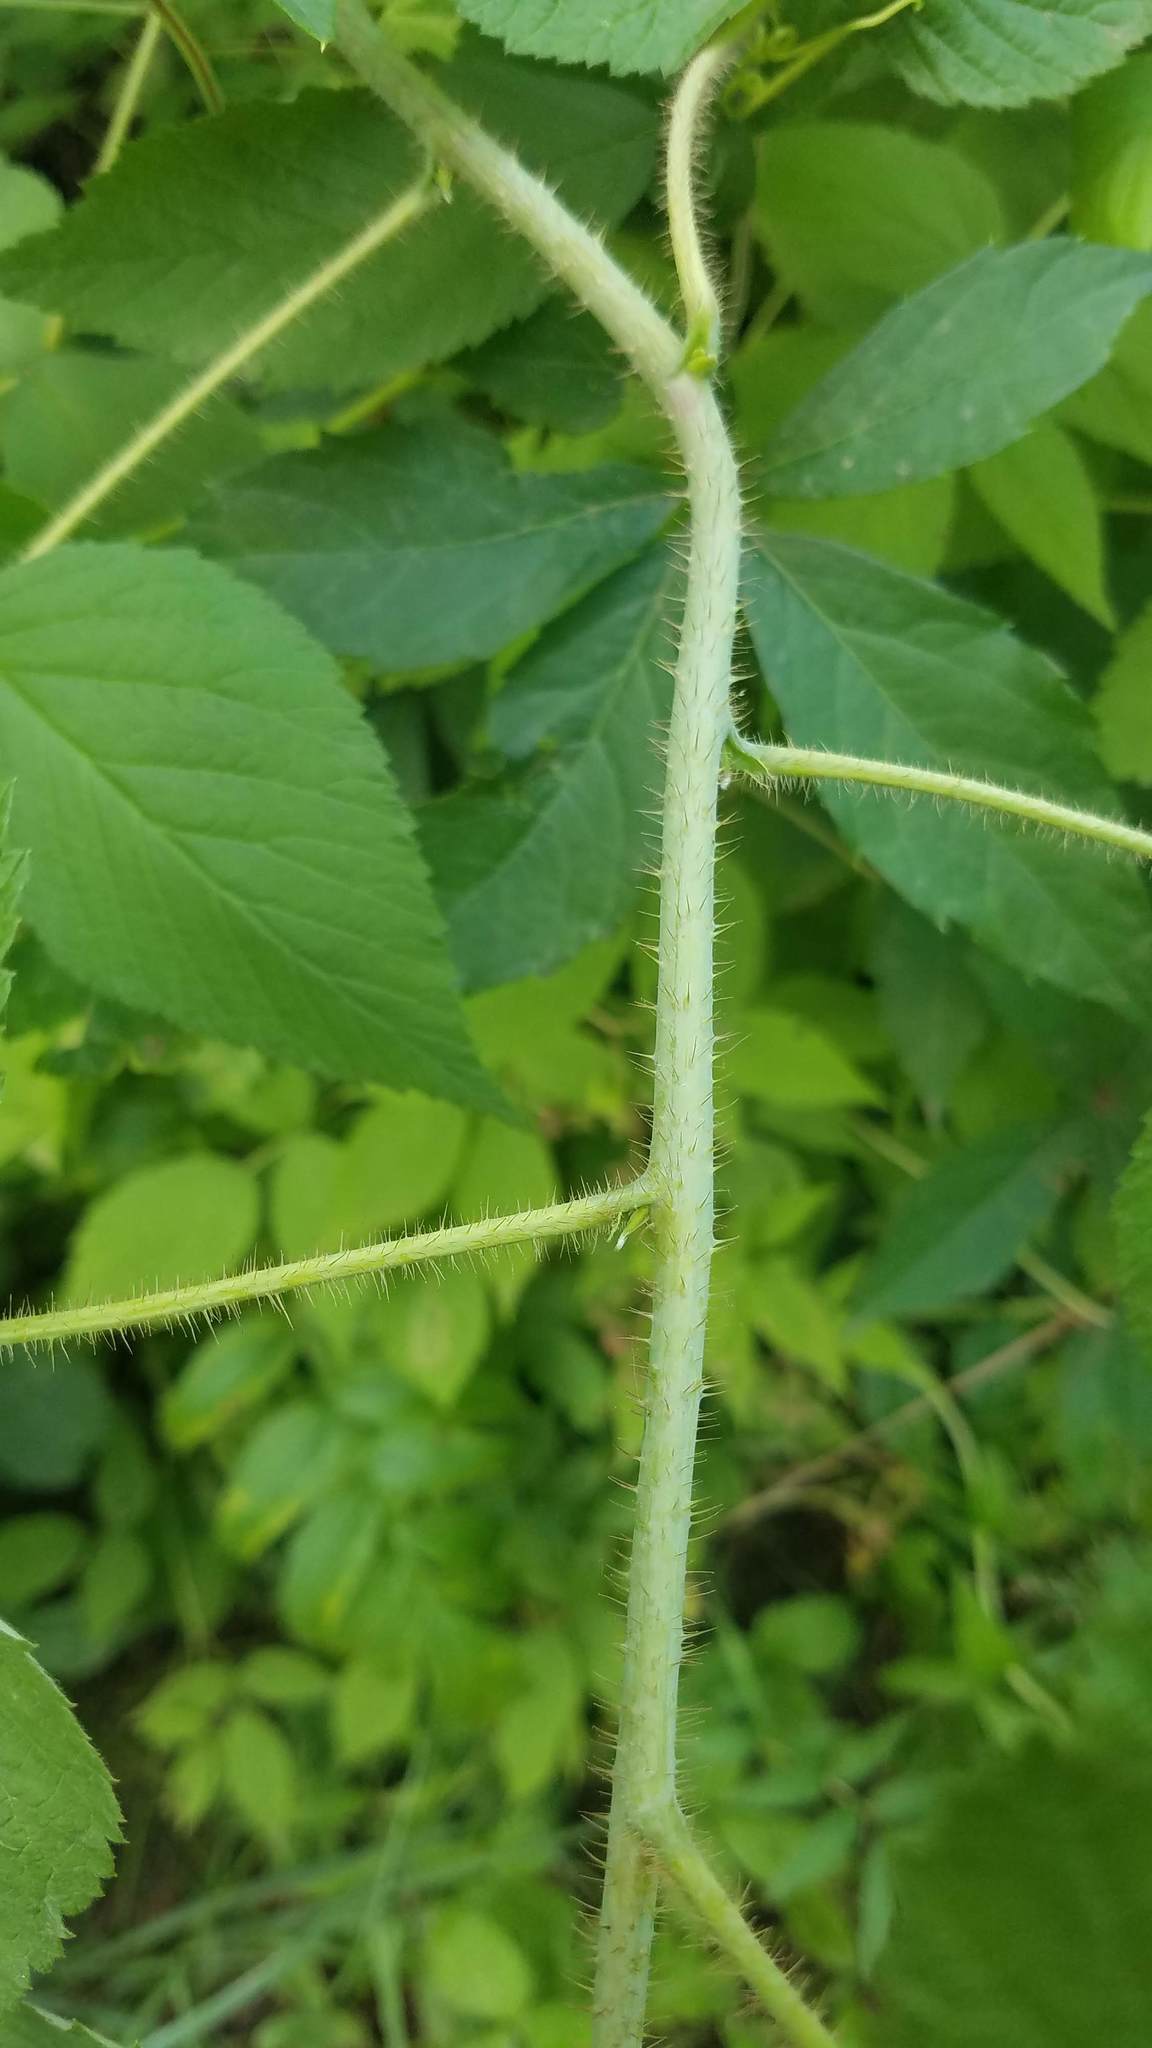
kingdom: Plantae
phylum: Tracheophyta
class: Magnoliopsida
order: Rosales
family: Rosaceae
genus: Rubus
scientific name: Rubus idaeus
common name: Raspberry
